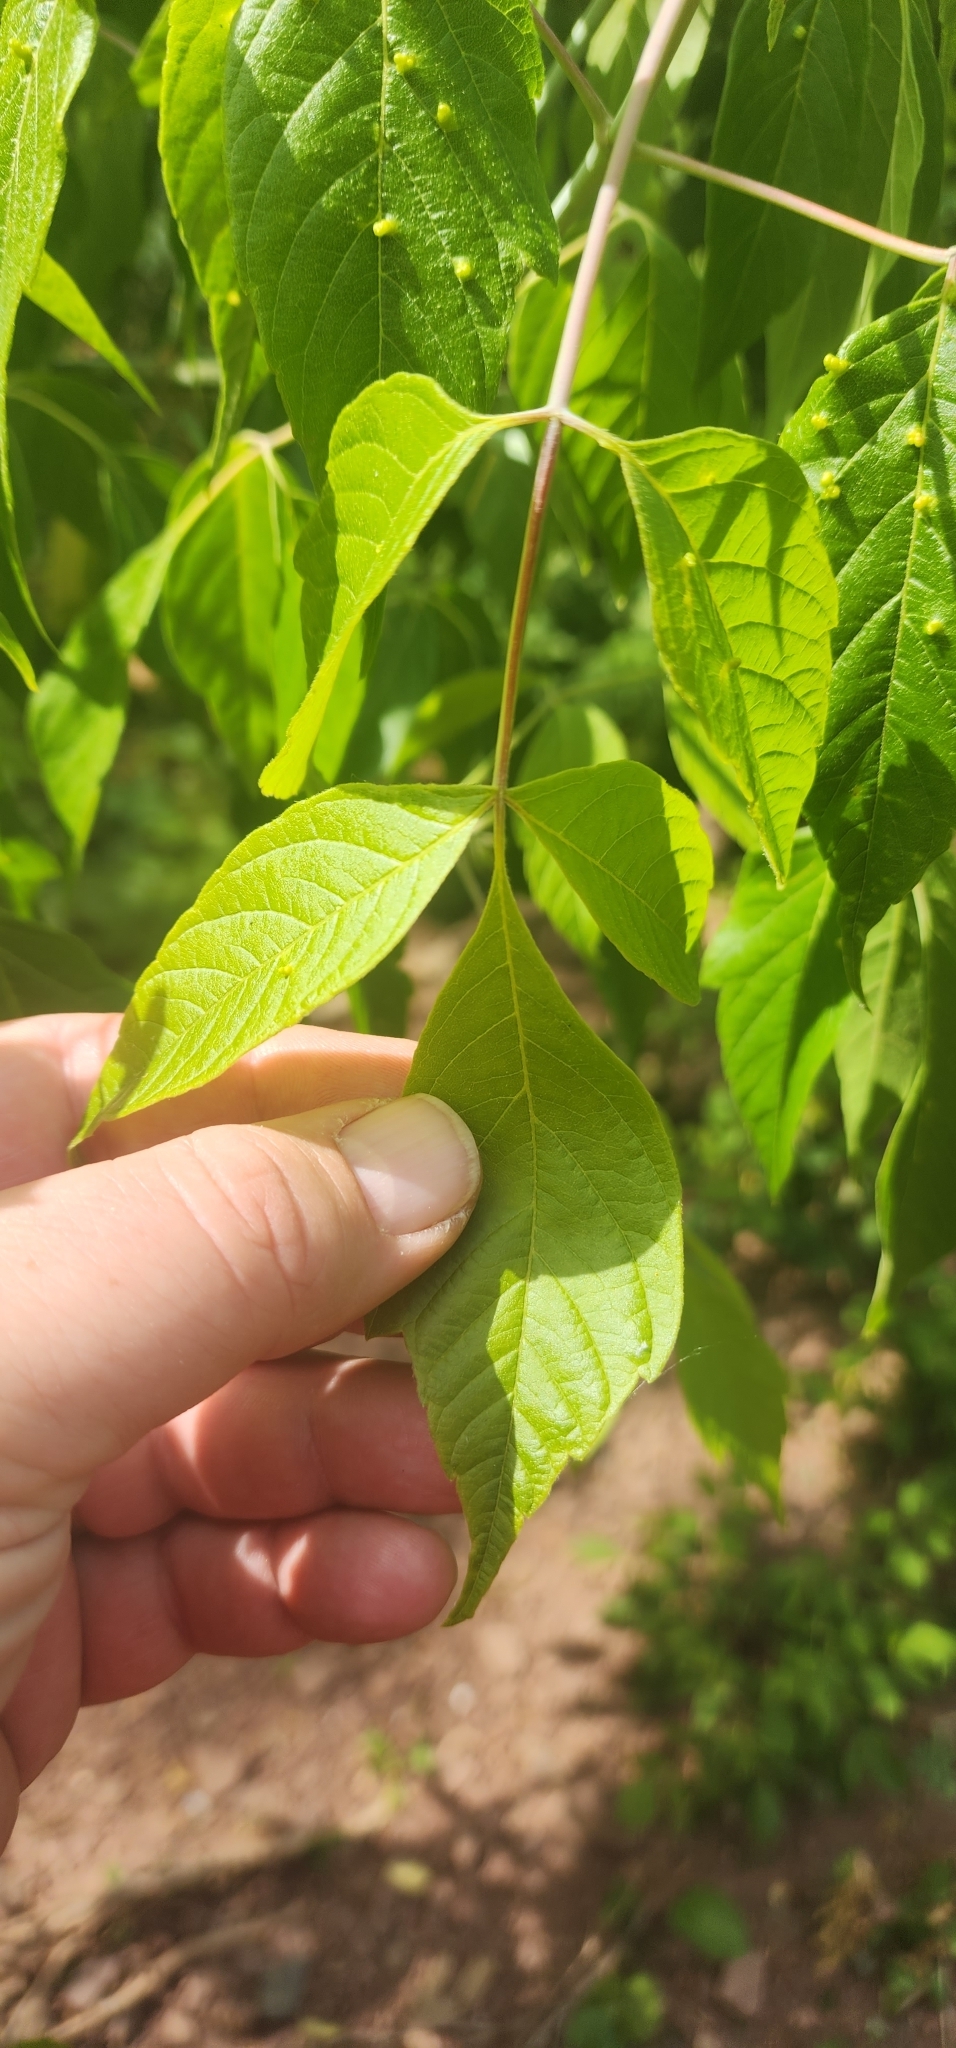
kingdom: Plantae
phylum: Tracheophyta
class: Magnoliopsida
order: Sapindales
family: Sapindaceae
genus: Acer
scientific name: Acer negundo
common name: Ashleaf maple
